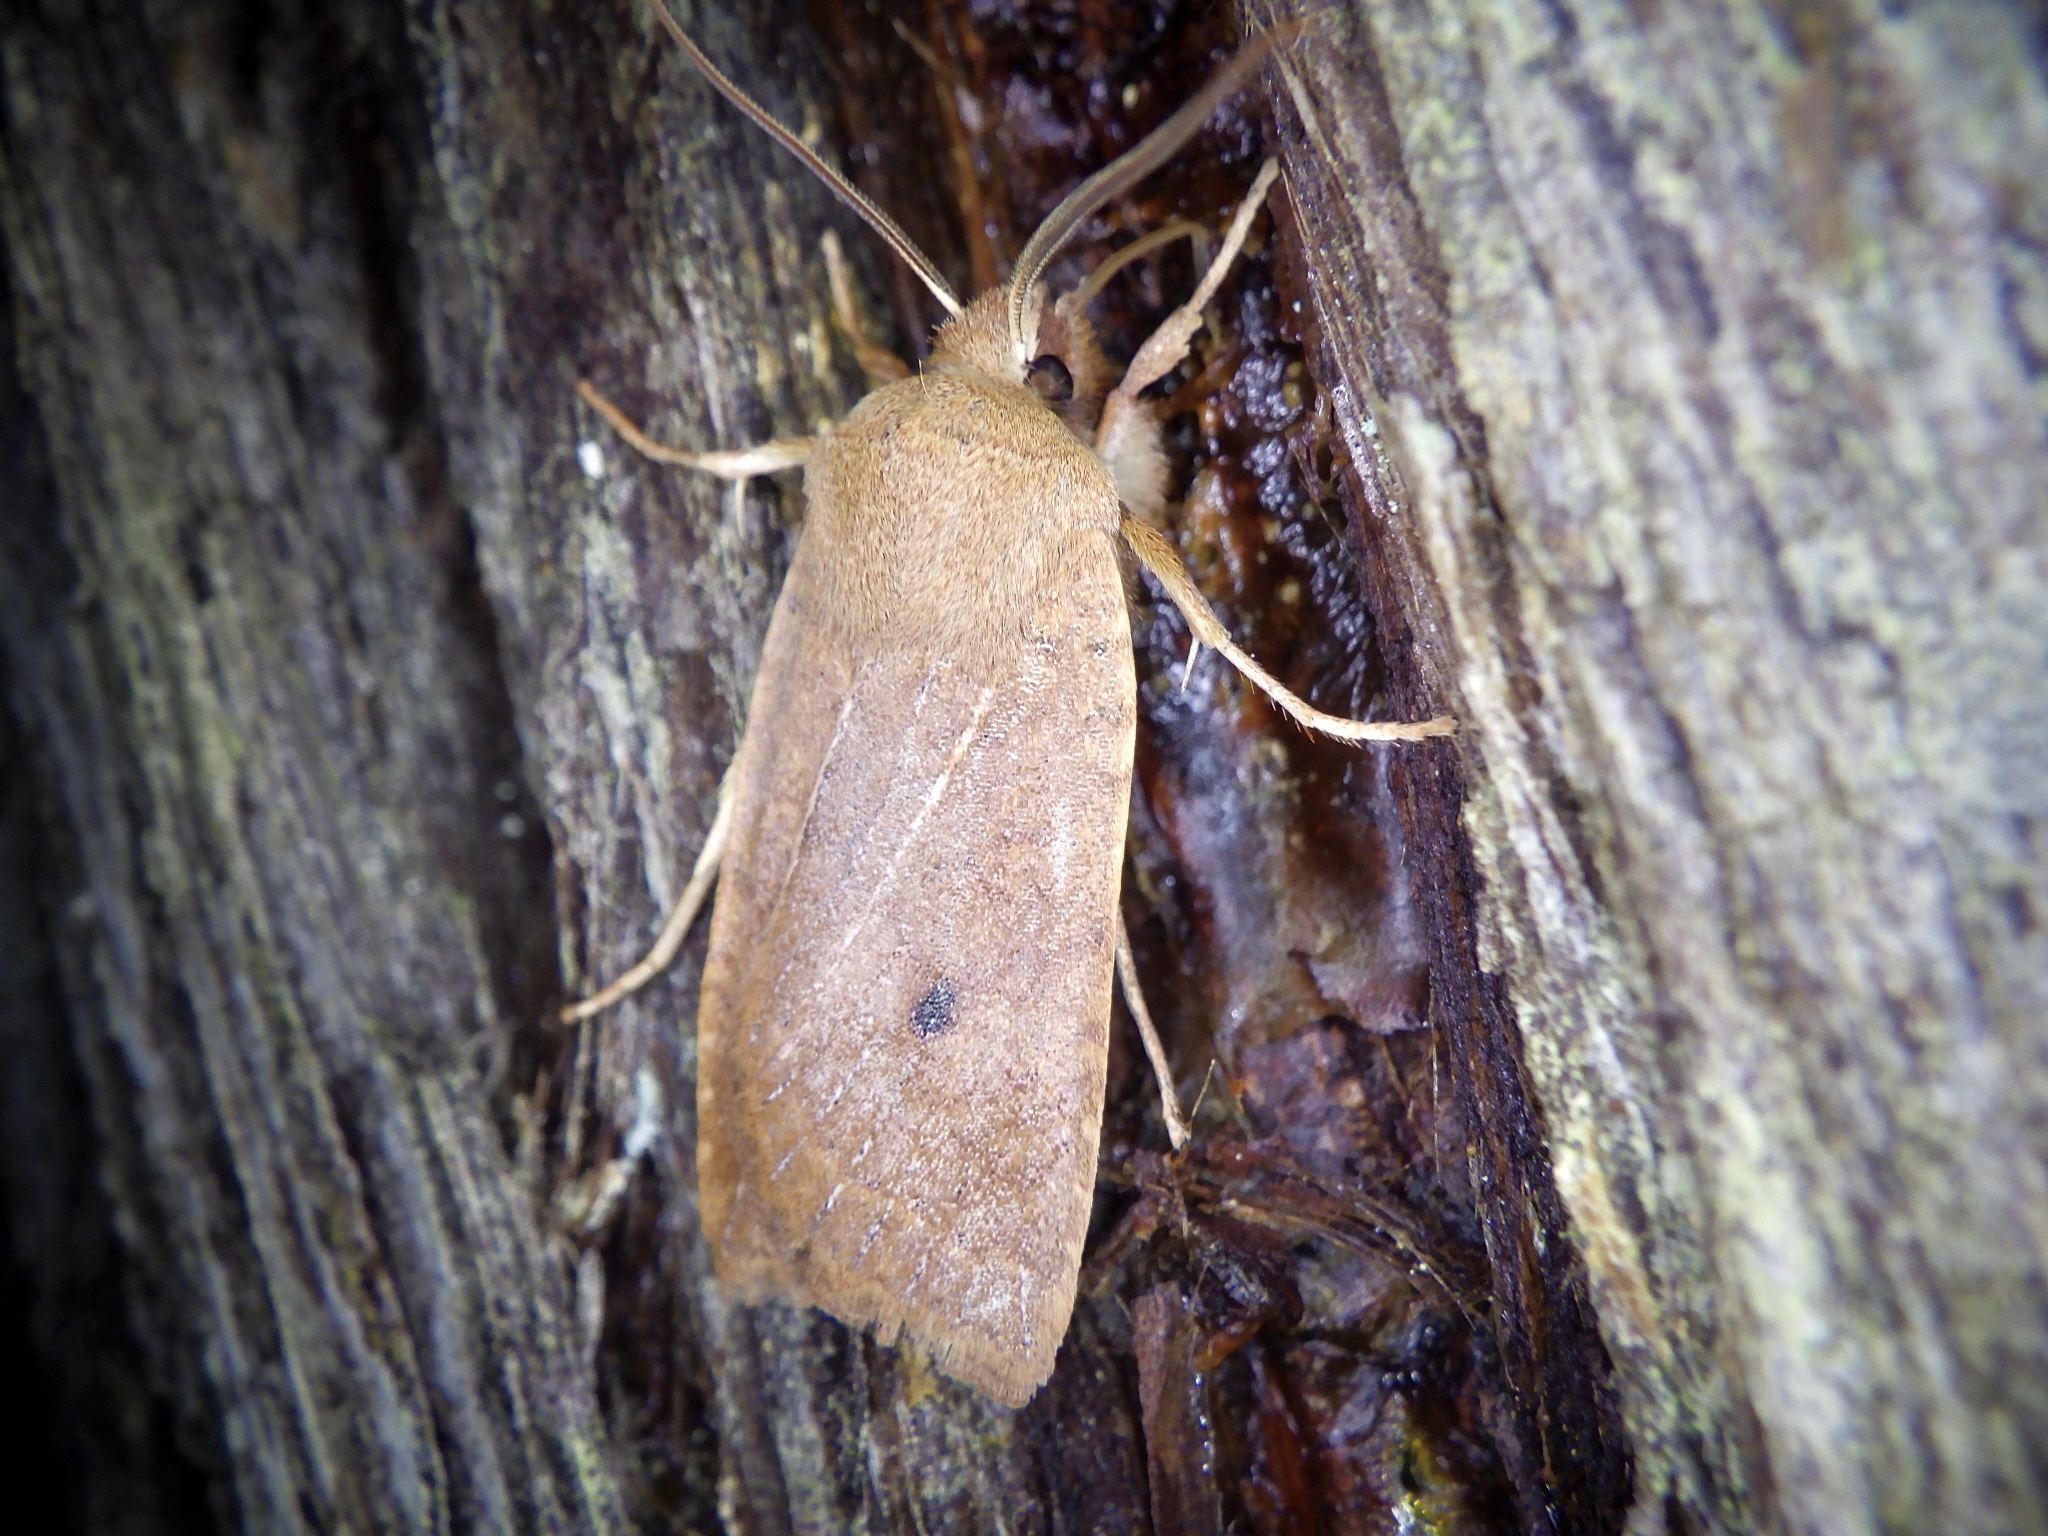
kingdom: Animalia
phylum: Arthropoda
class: Insecta
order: Lepidoptera
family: Noctuidae
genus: Conistra
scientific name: Conistra albipuncta
